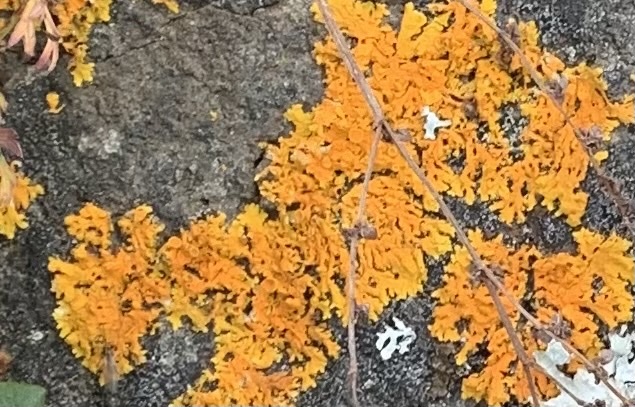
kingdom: Fungi
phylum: Ascomycota
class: Lecanoromycetes
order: Teloschistales
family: Teloschistaceae
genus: Xanthoria
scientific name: Xanthoria parietina
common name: Common orange lichen
